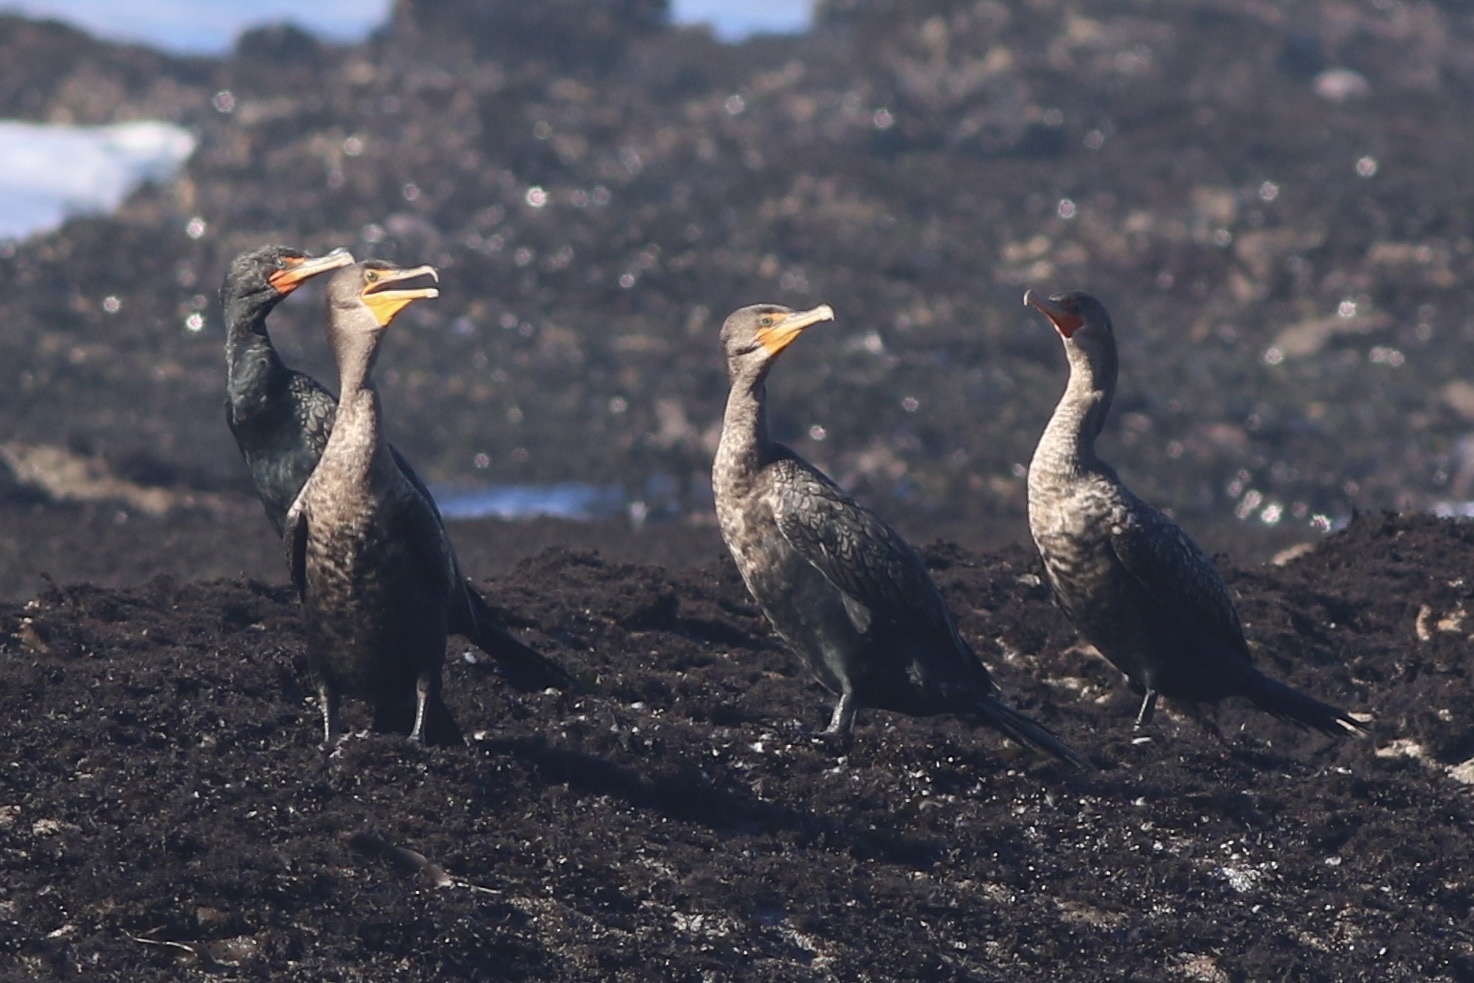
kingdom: Animalia
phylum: Chordata
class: Aves
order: Suliformes
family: Phalacrocoracidae
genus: Phalacrocorax
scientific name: Phalacrocorax auritus
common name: Double-crested cormorant
